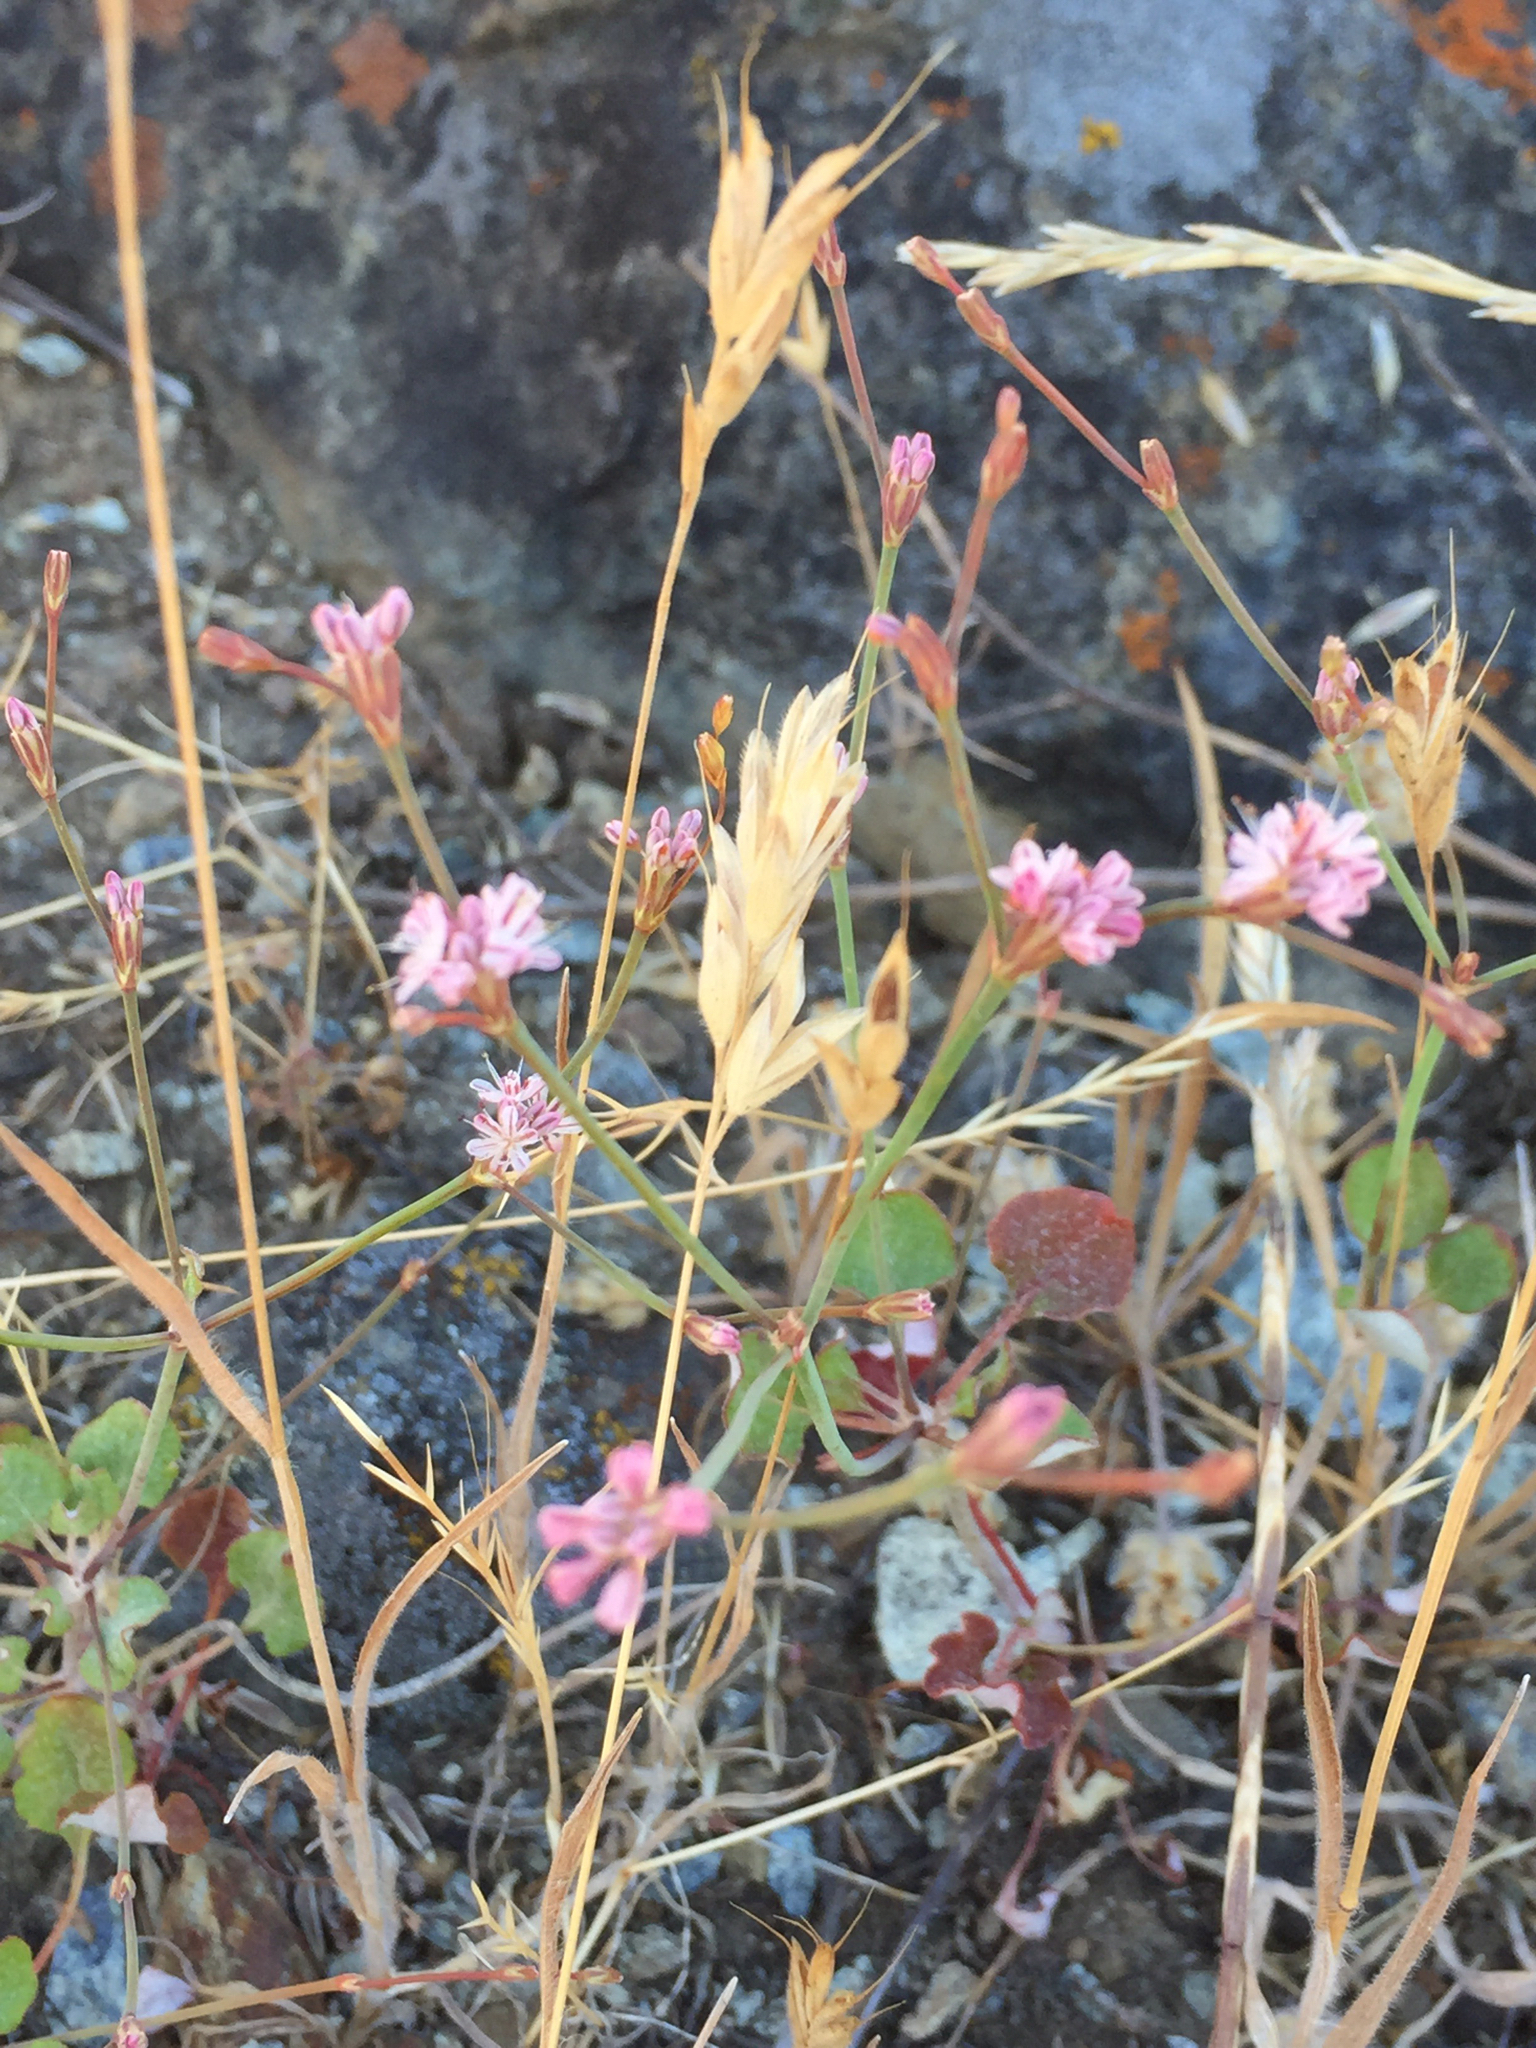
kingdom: Plantae
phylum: Tracheophyta
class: Magnoliopsida
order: Caryophyllales
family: Polygonaceae
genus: Eriogonum
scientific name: Eriogonum luteolum
